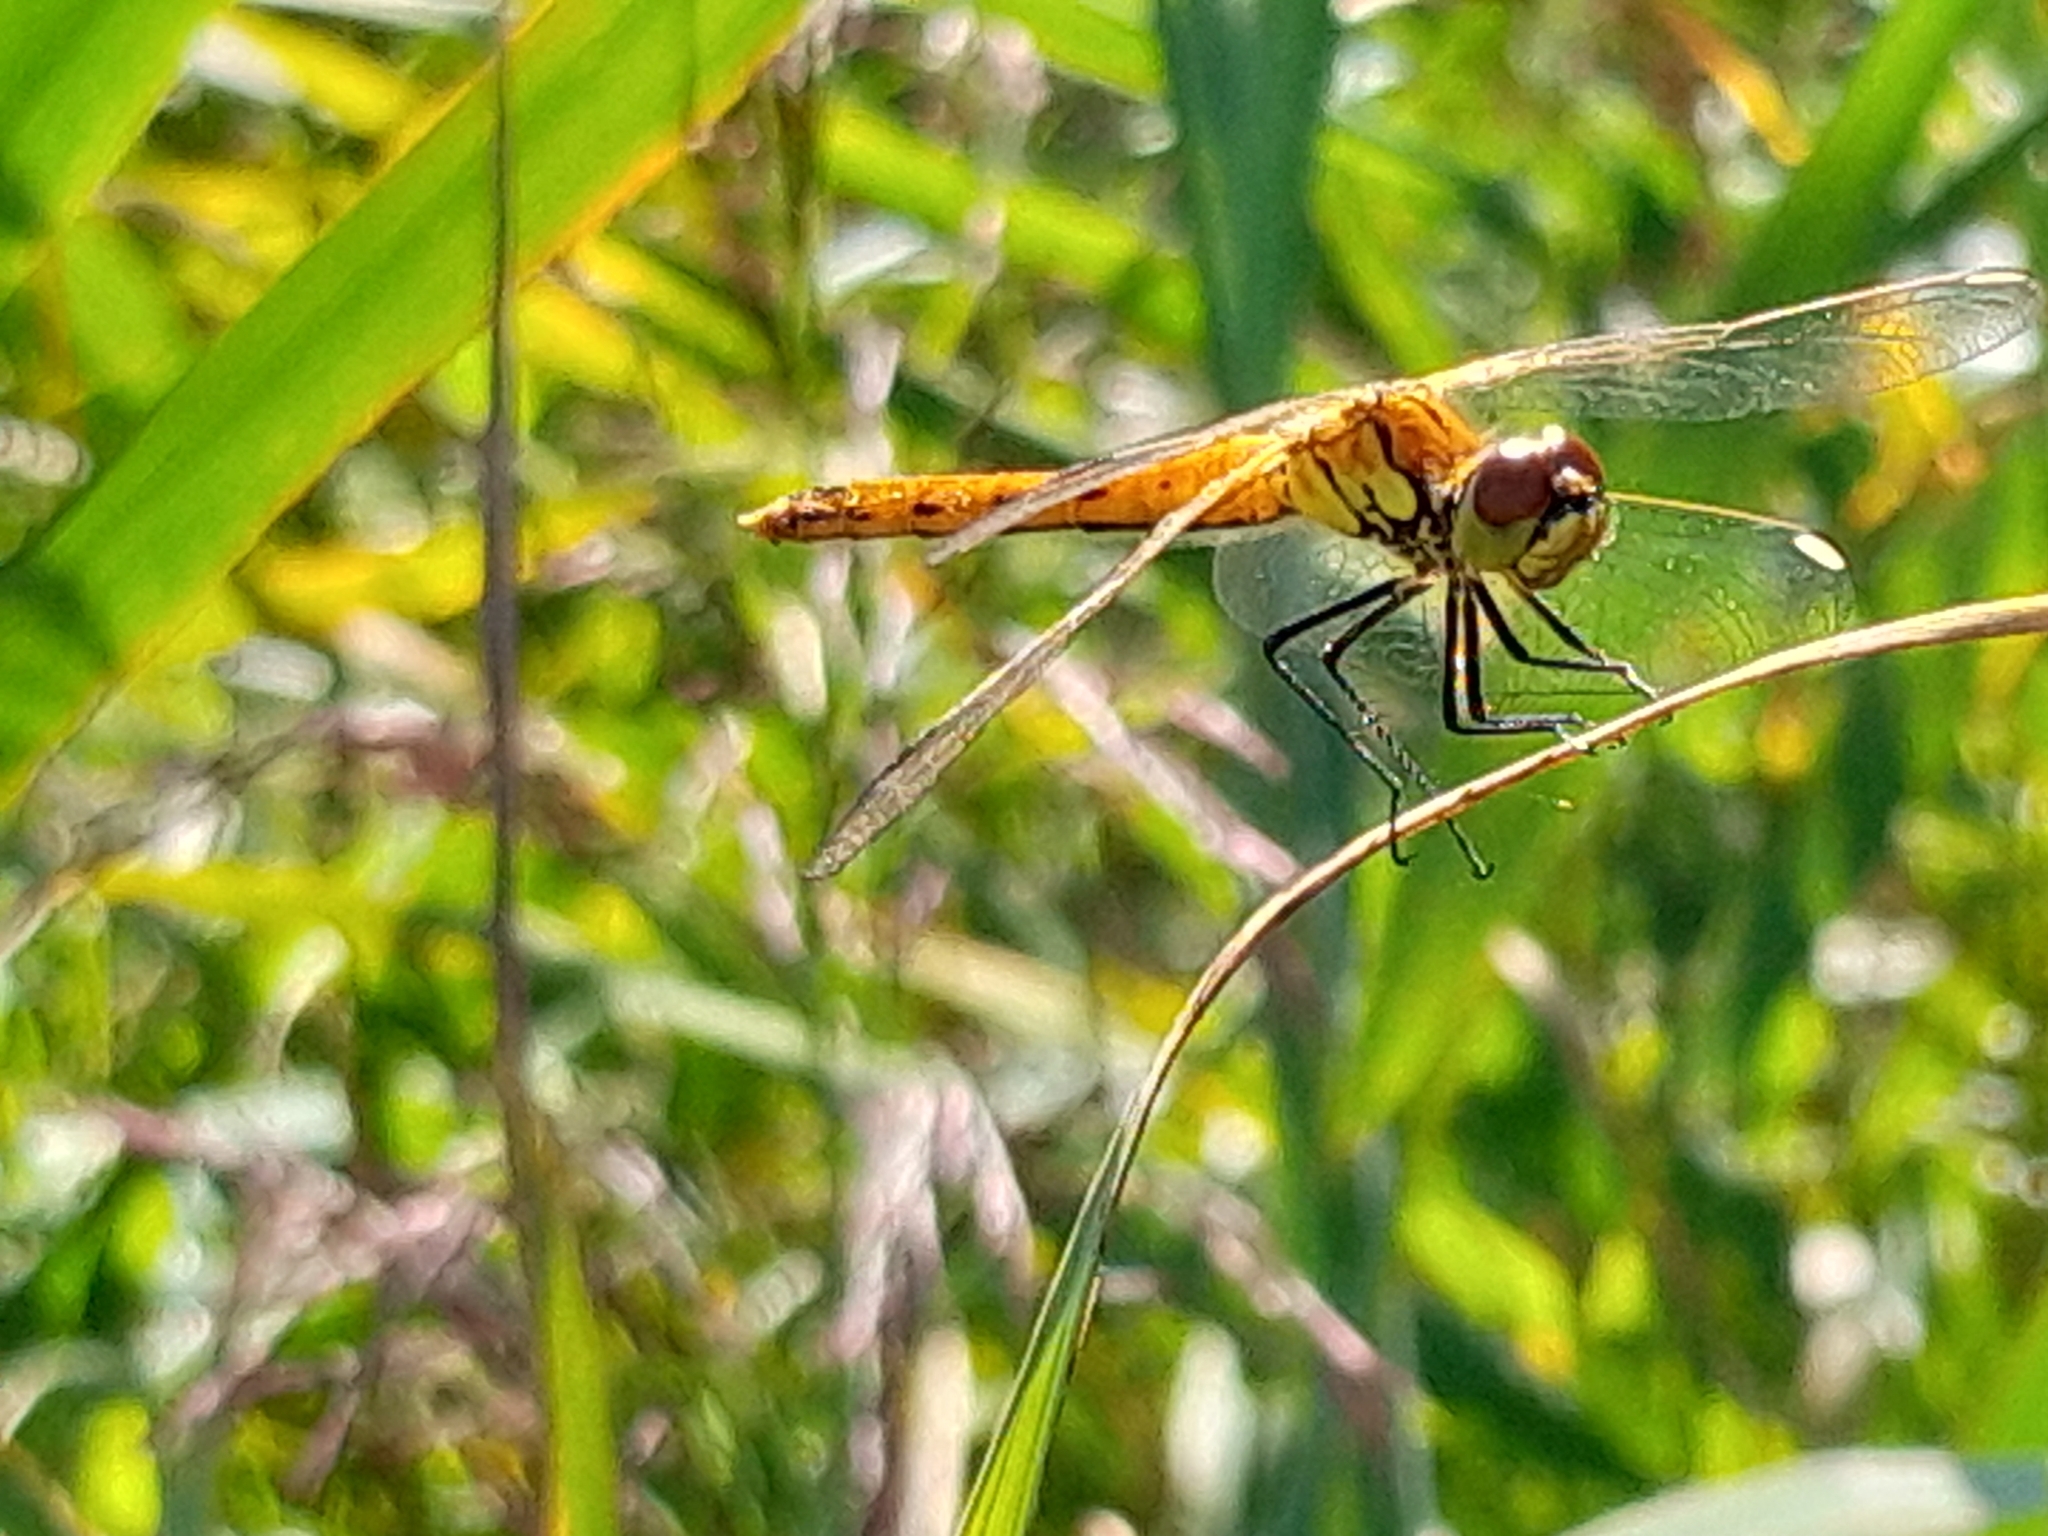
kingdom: Animalia
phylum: Arthropoda
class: Insecta
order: Odonata
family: Libellulidae
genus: Sympetrum
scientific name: Sympetrum depressiusculum
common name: Spotted darter
